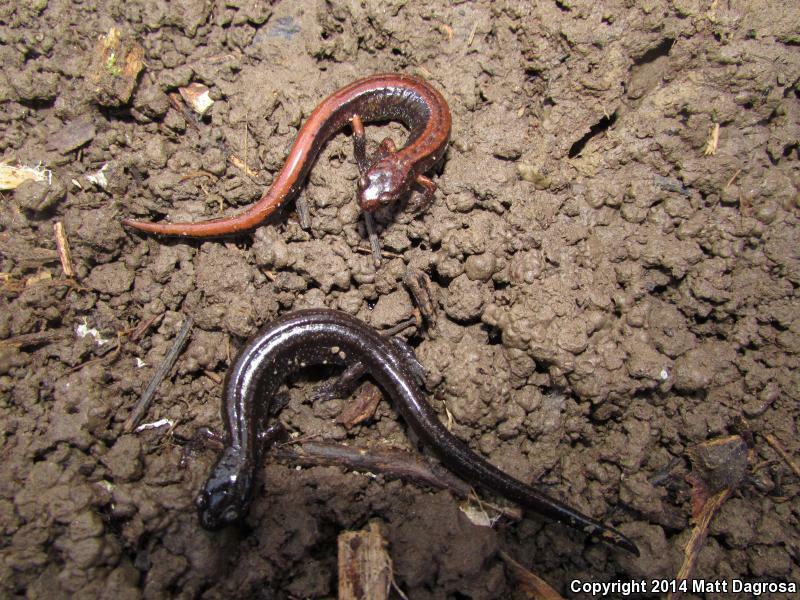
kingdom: Animalia
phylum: Chordata
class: Amphibia
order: Caudata
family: Plethodontidae
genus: Plethodon
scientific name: Plethodon vehiculum
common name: Western red-backed salamander
